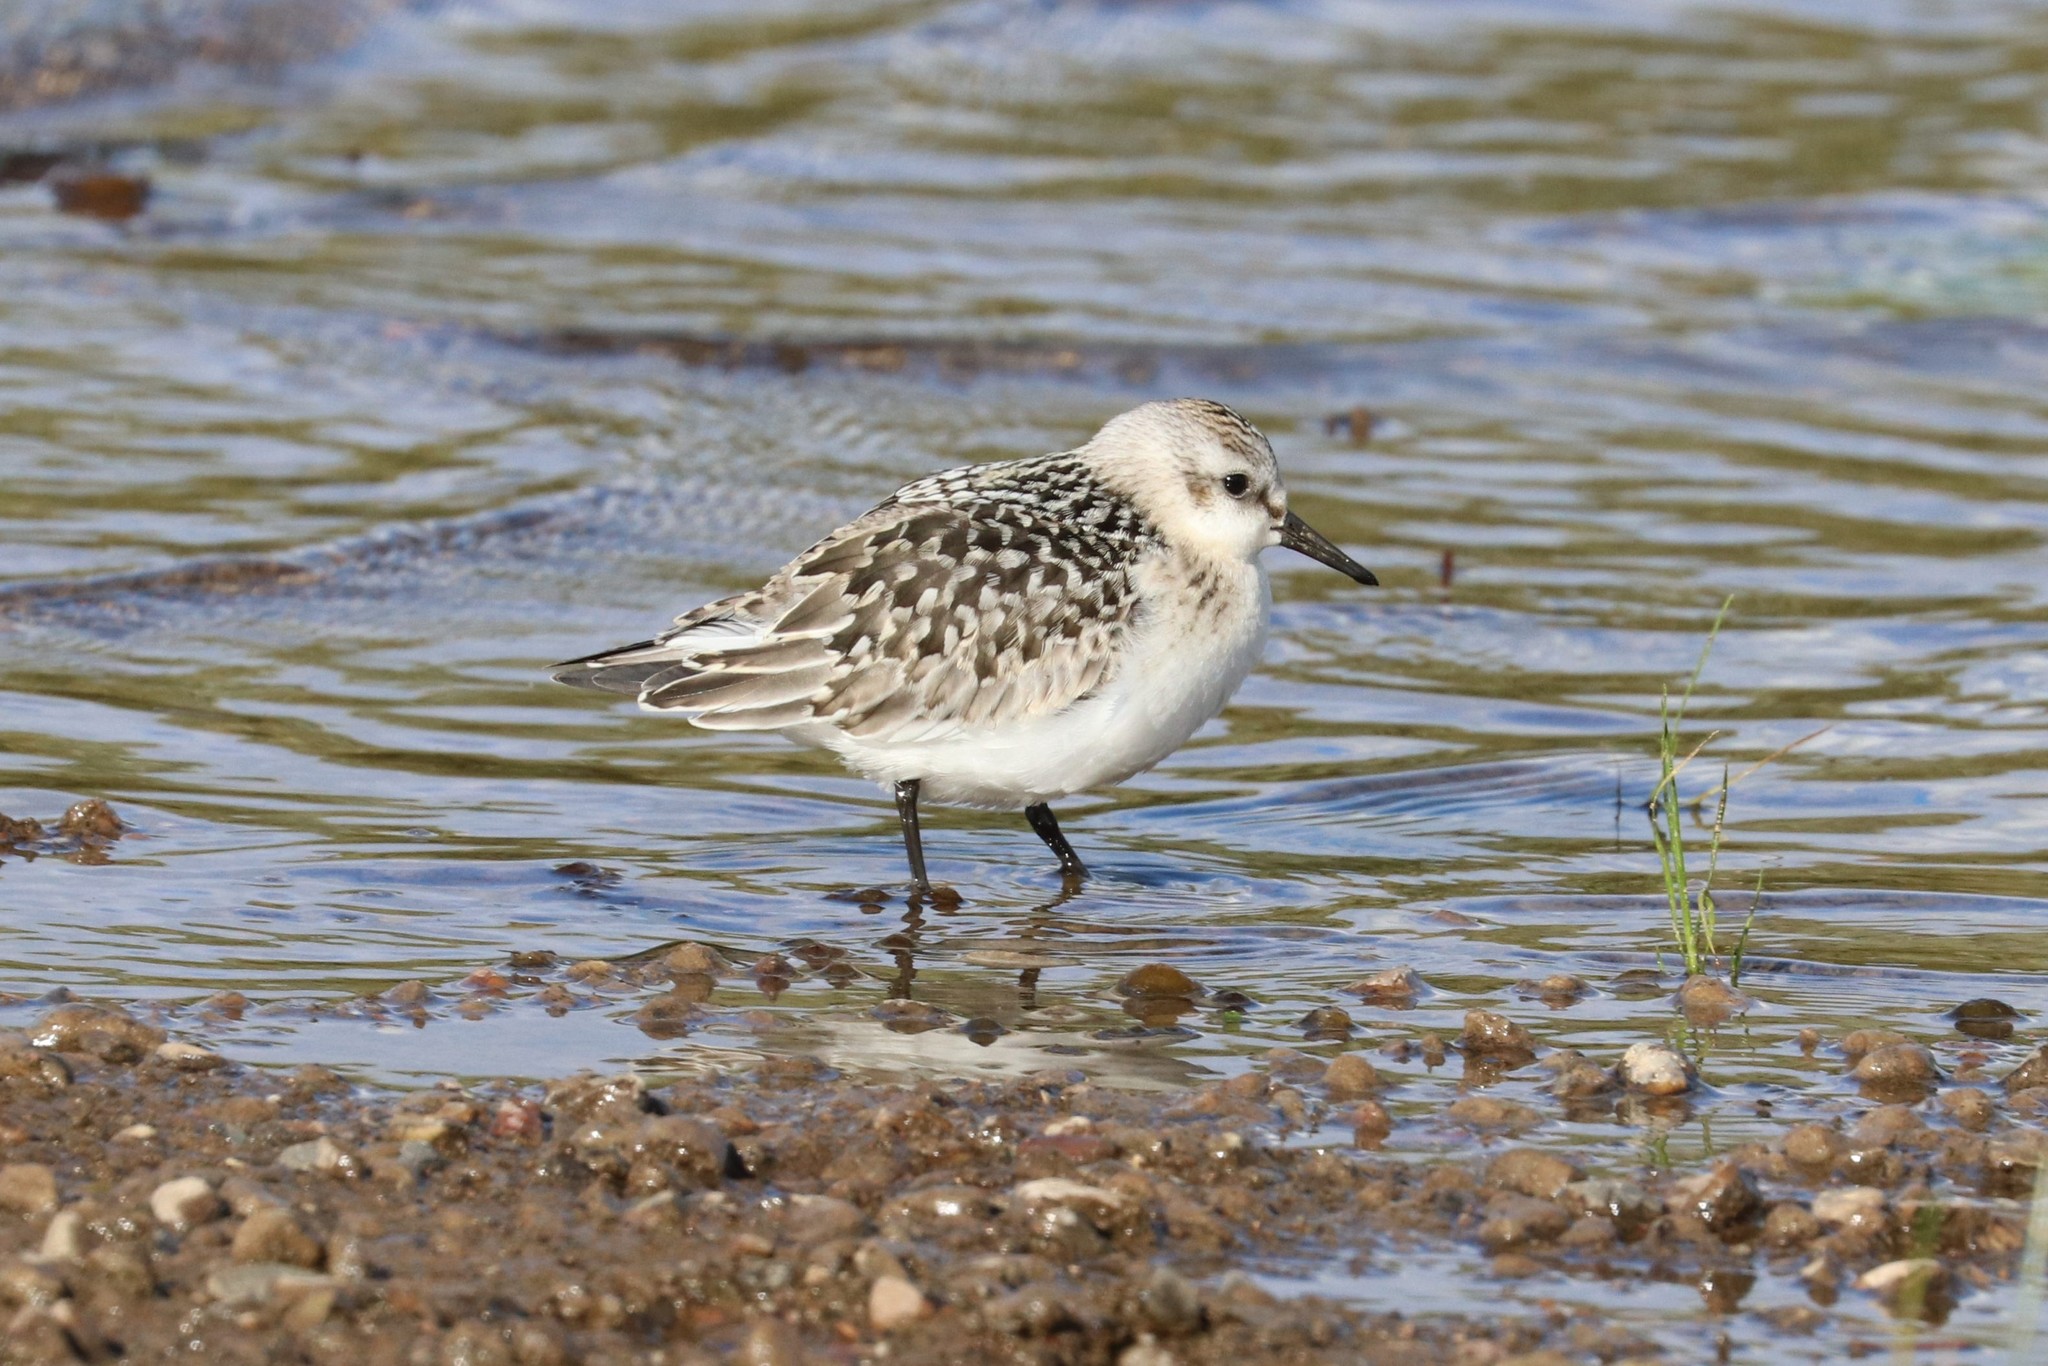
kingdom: Animalia
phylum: Chordata
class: Aves
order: Charadriiformes
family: Scolopacidae
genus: Calidris
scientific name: Calidris alba
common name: Sanderling
